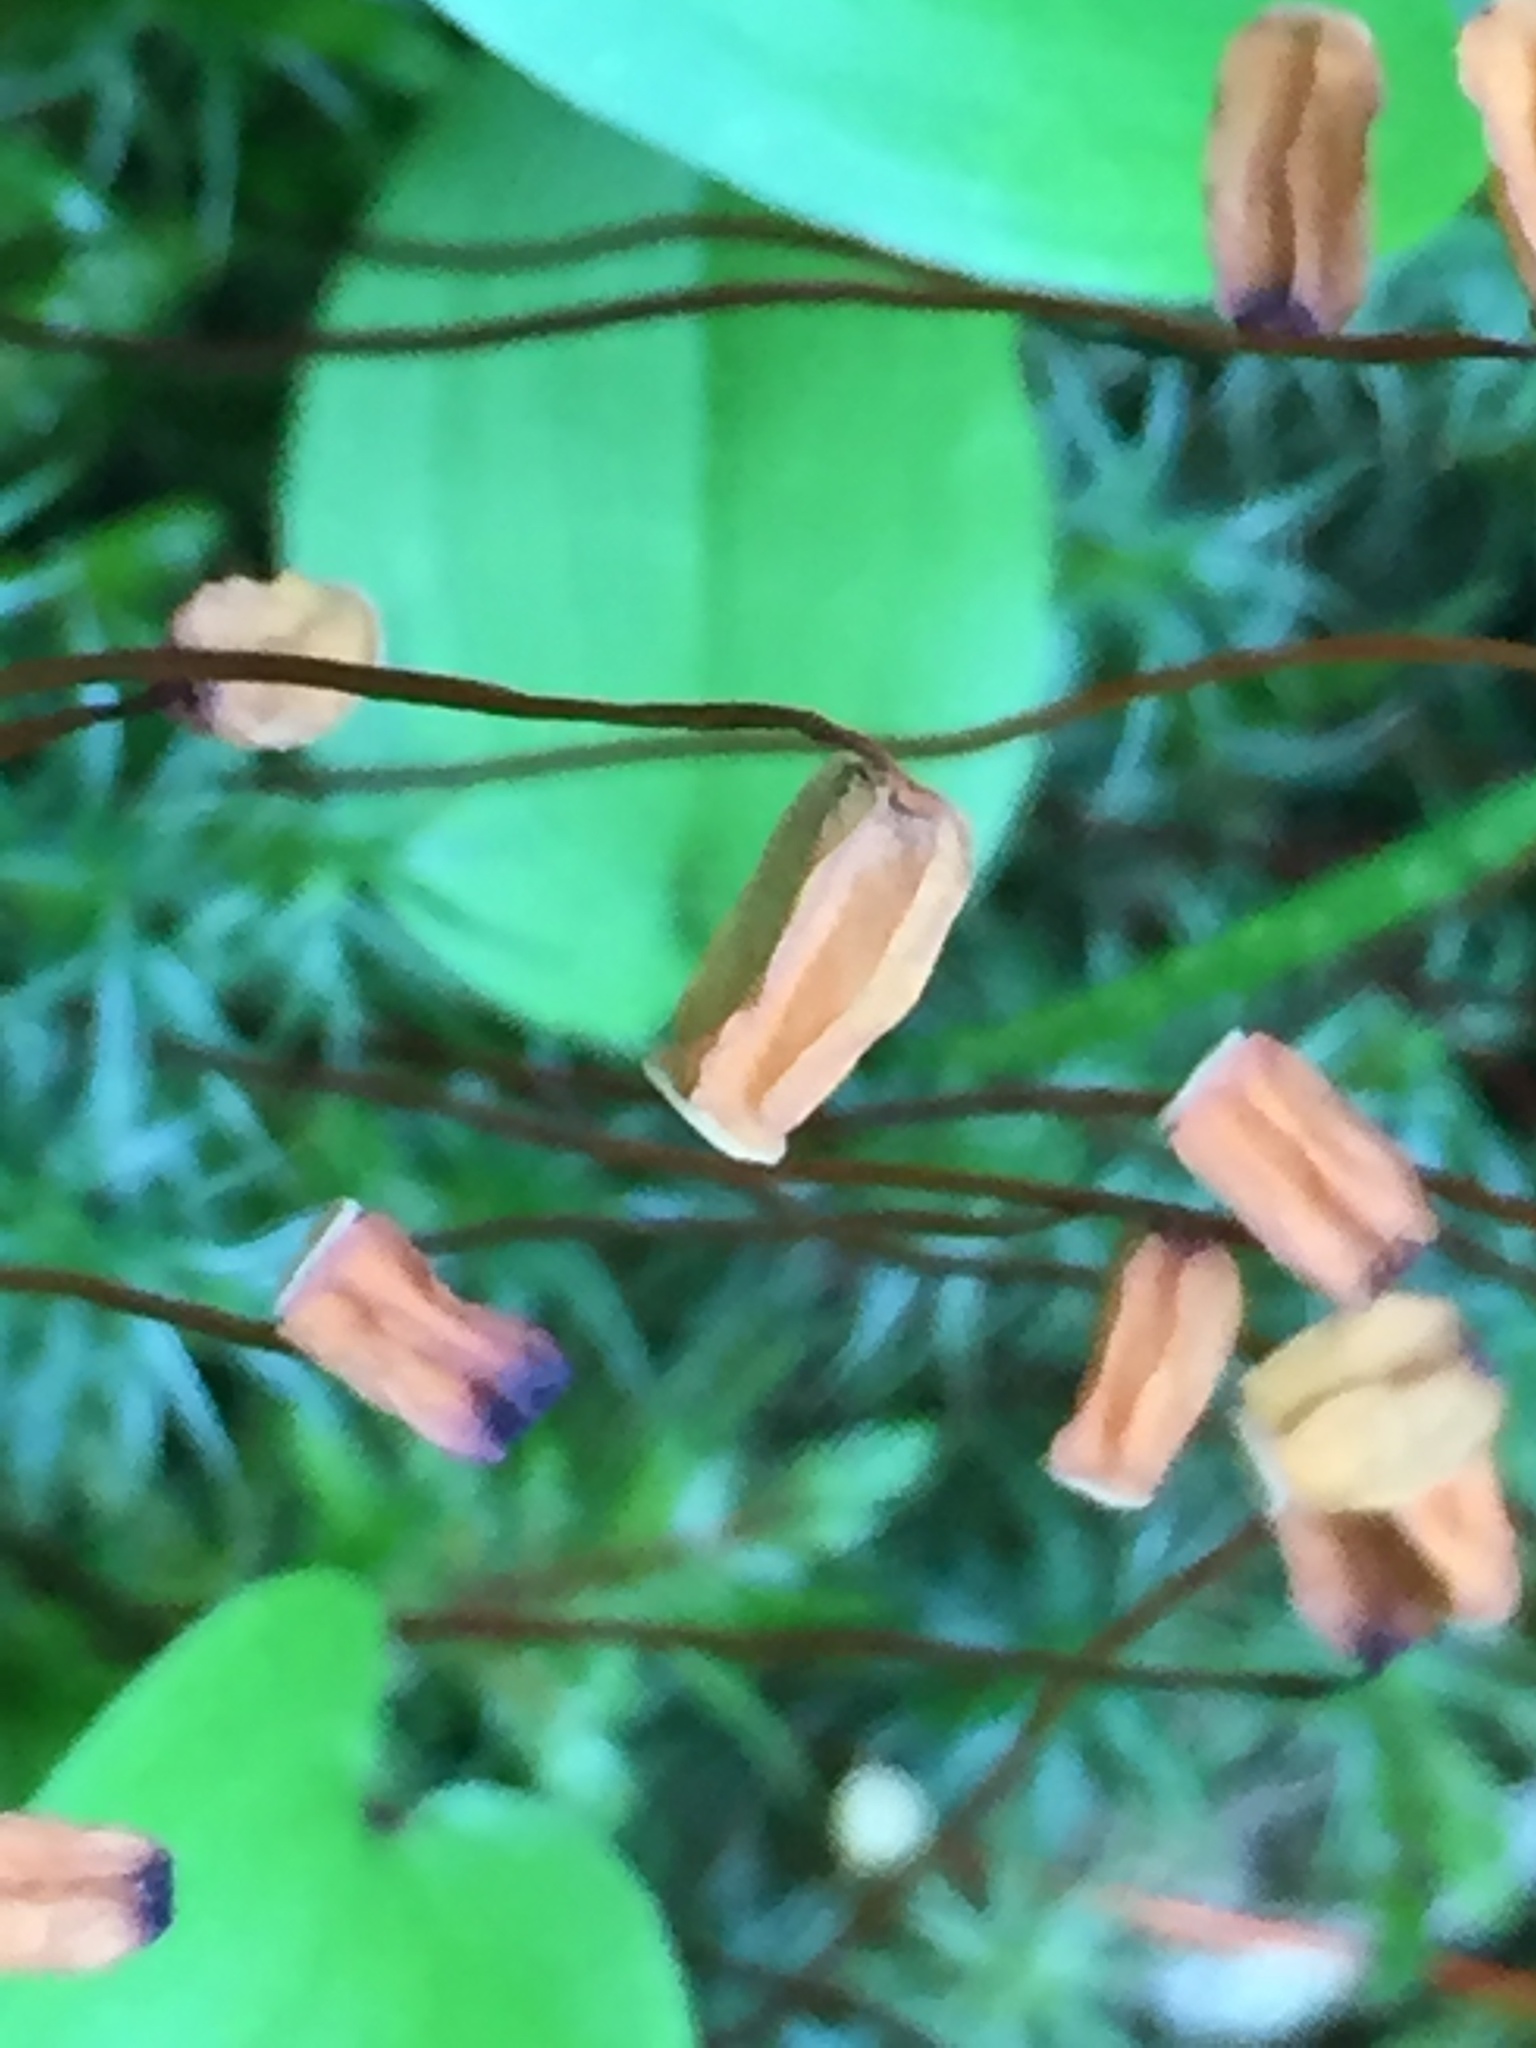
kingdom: Plantae
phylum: Bryophyta
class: Polytrichopsida
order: Polytrichales
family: Polytrichaceae
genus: Polytrichum
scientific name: Polytrichum juniperinum
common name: Juniper haircap moss
